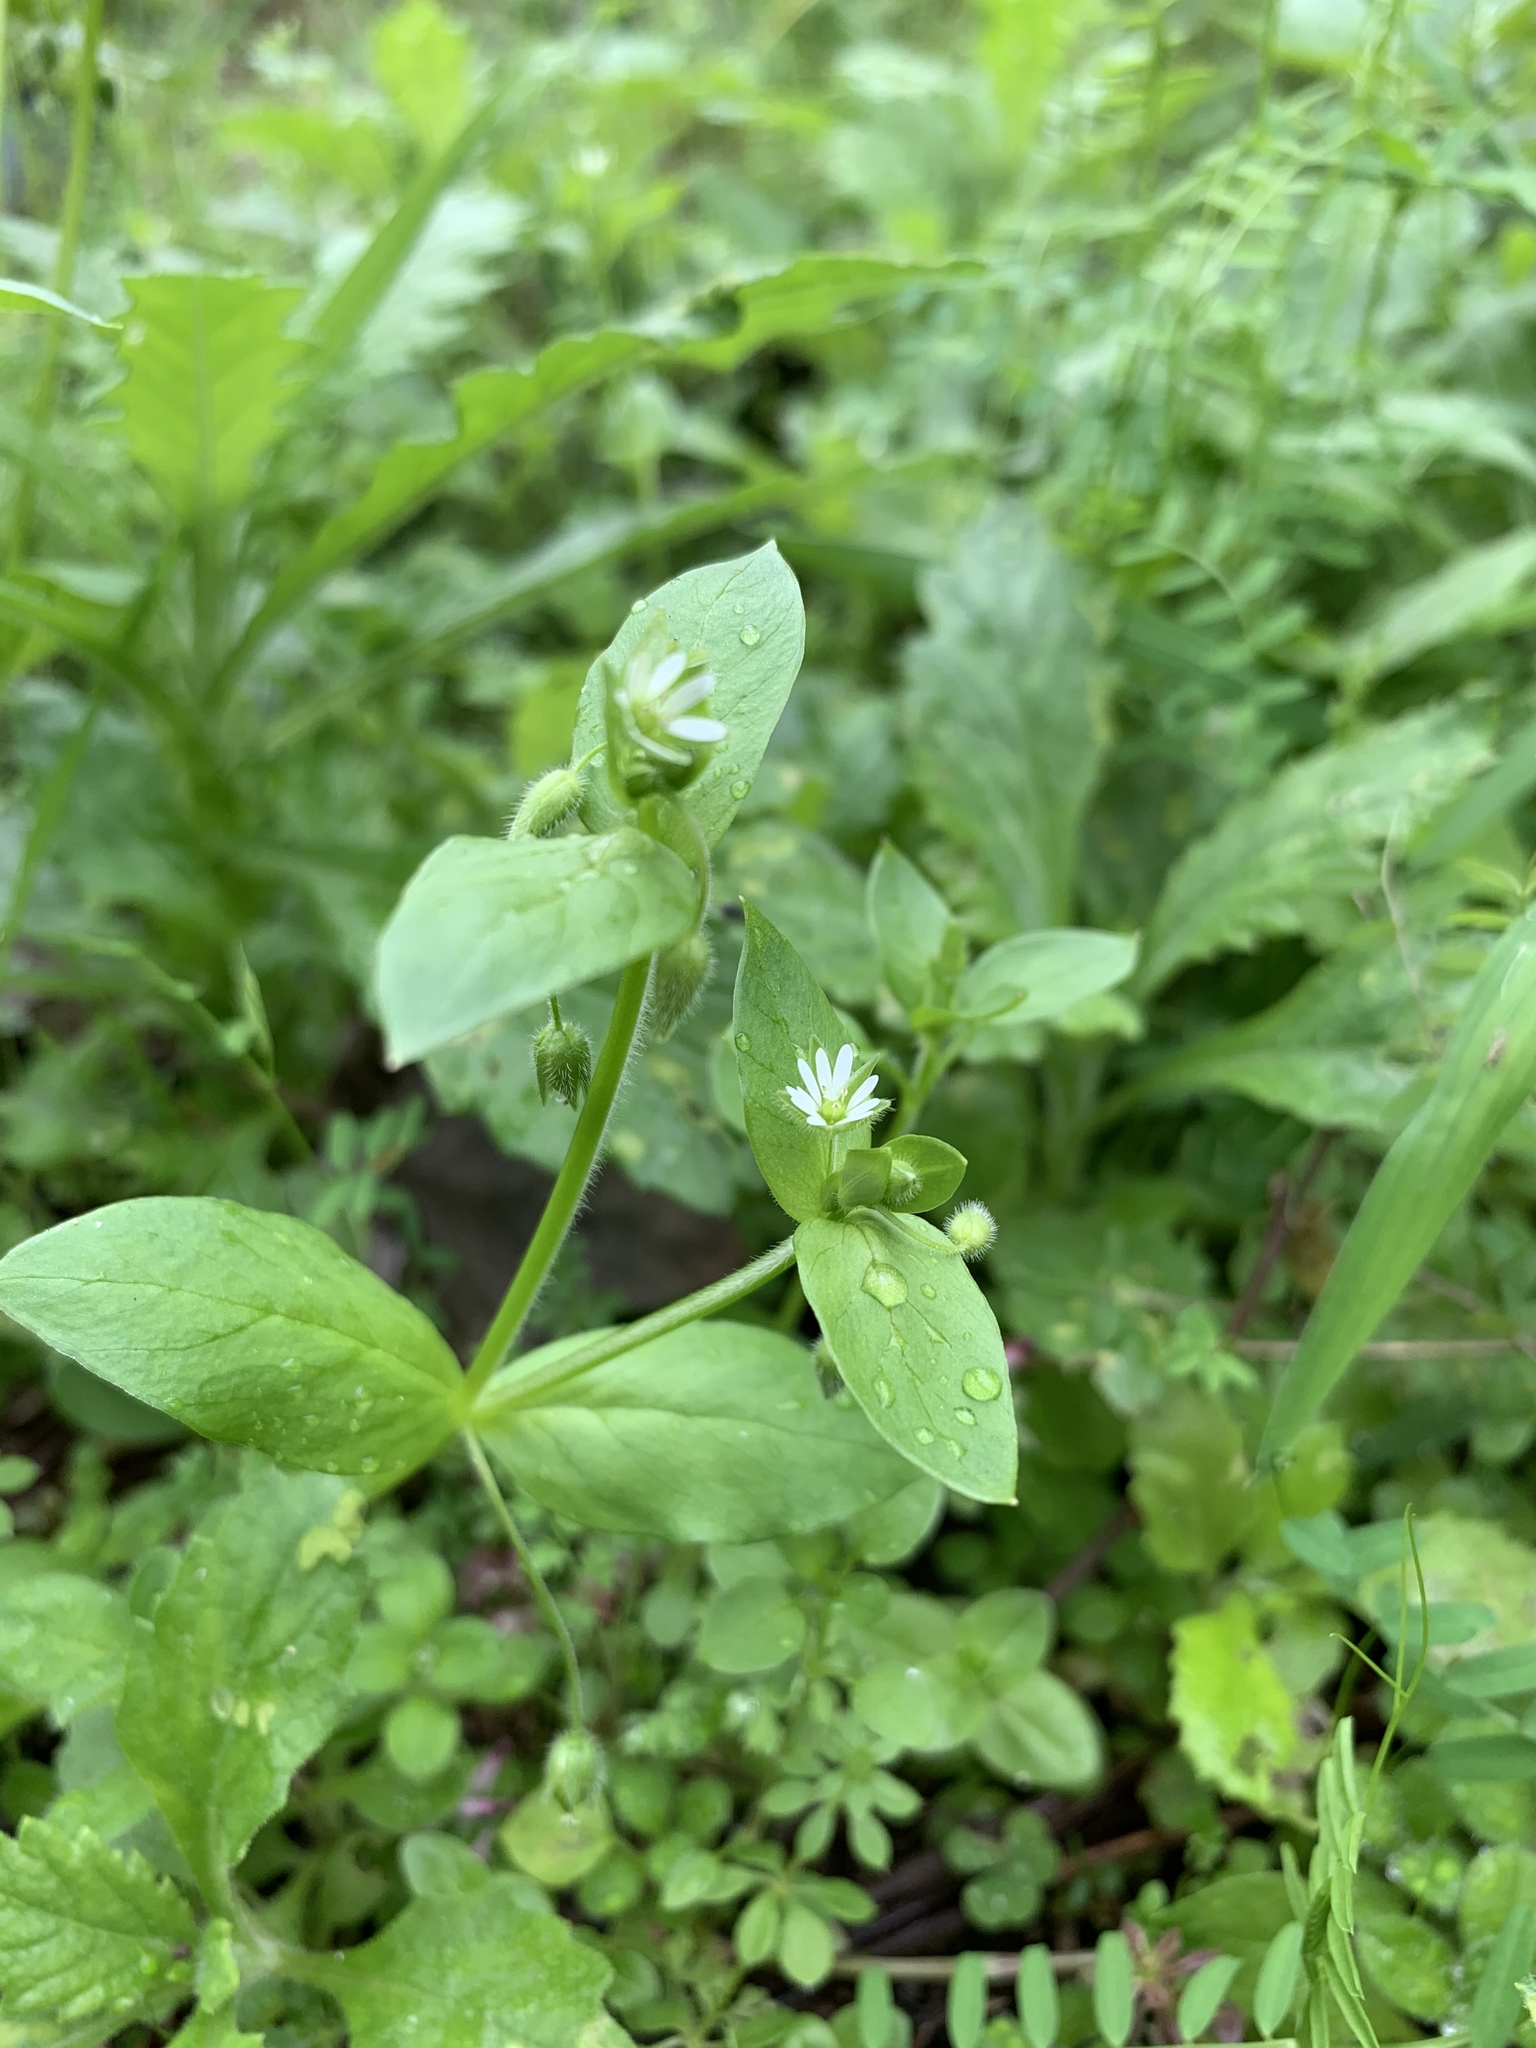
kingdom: Plantae
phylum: Tracheophyta
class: Magnoliopsida
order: Caryophyllales
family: Caryophyllaceae
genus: Stellaria
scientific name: Stellaria media
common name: Common chickweed
